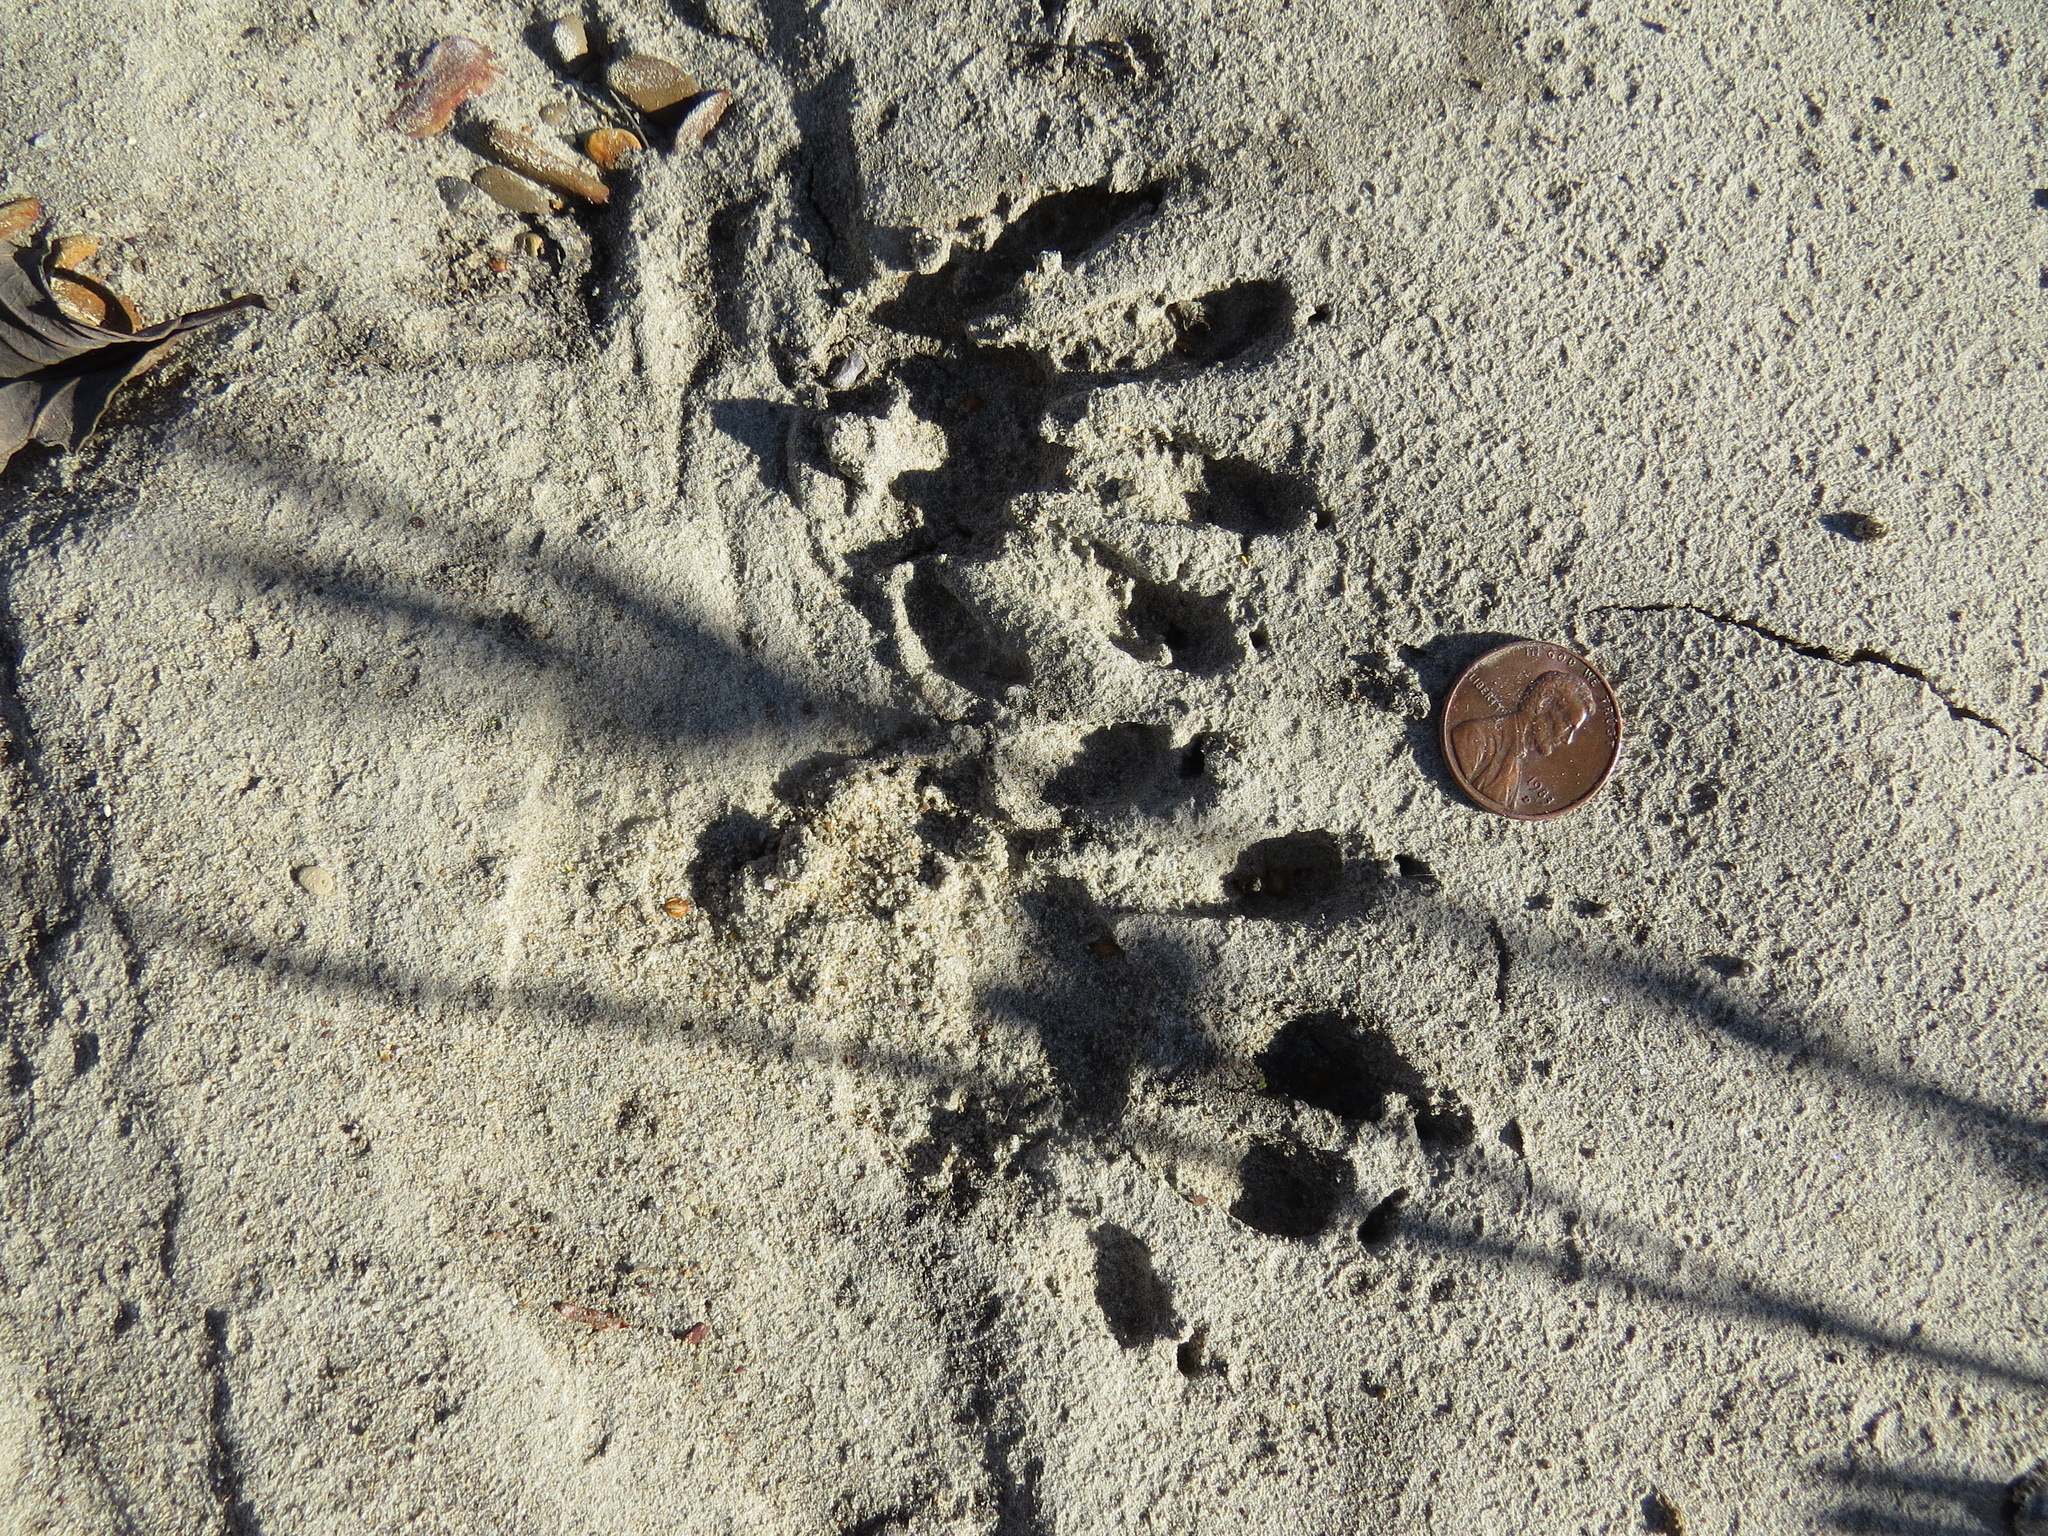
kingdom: Animalia
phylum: Chordata
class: Mammalia
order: Carnivora
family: Procyonidae
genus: Procyon
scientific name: Procyon lotor
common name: Raccoon
